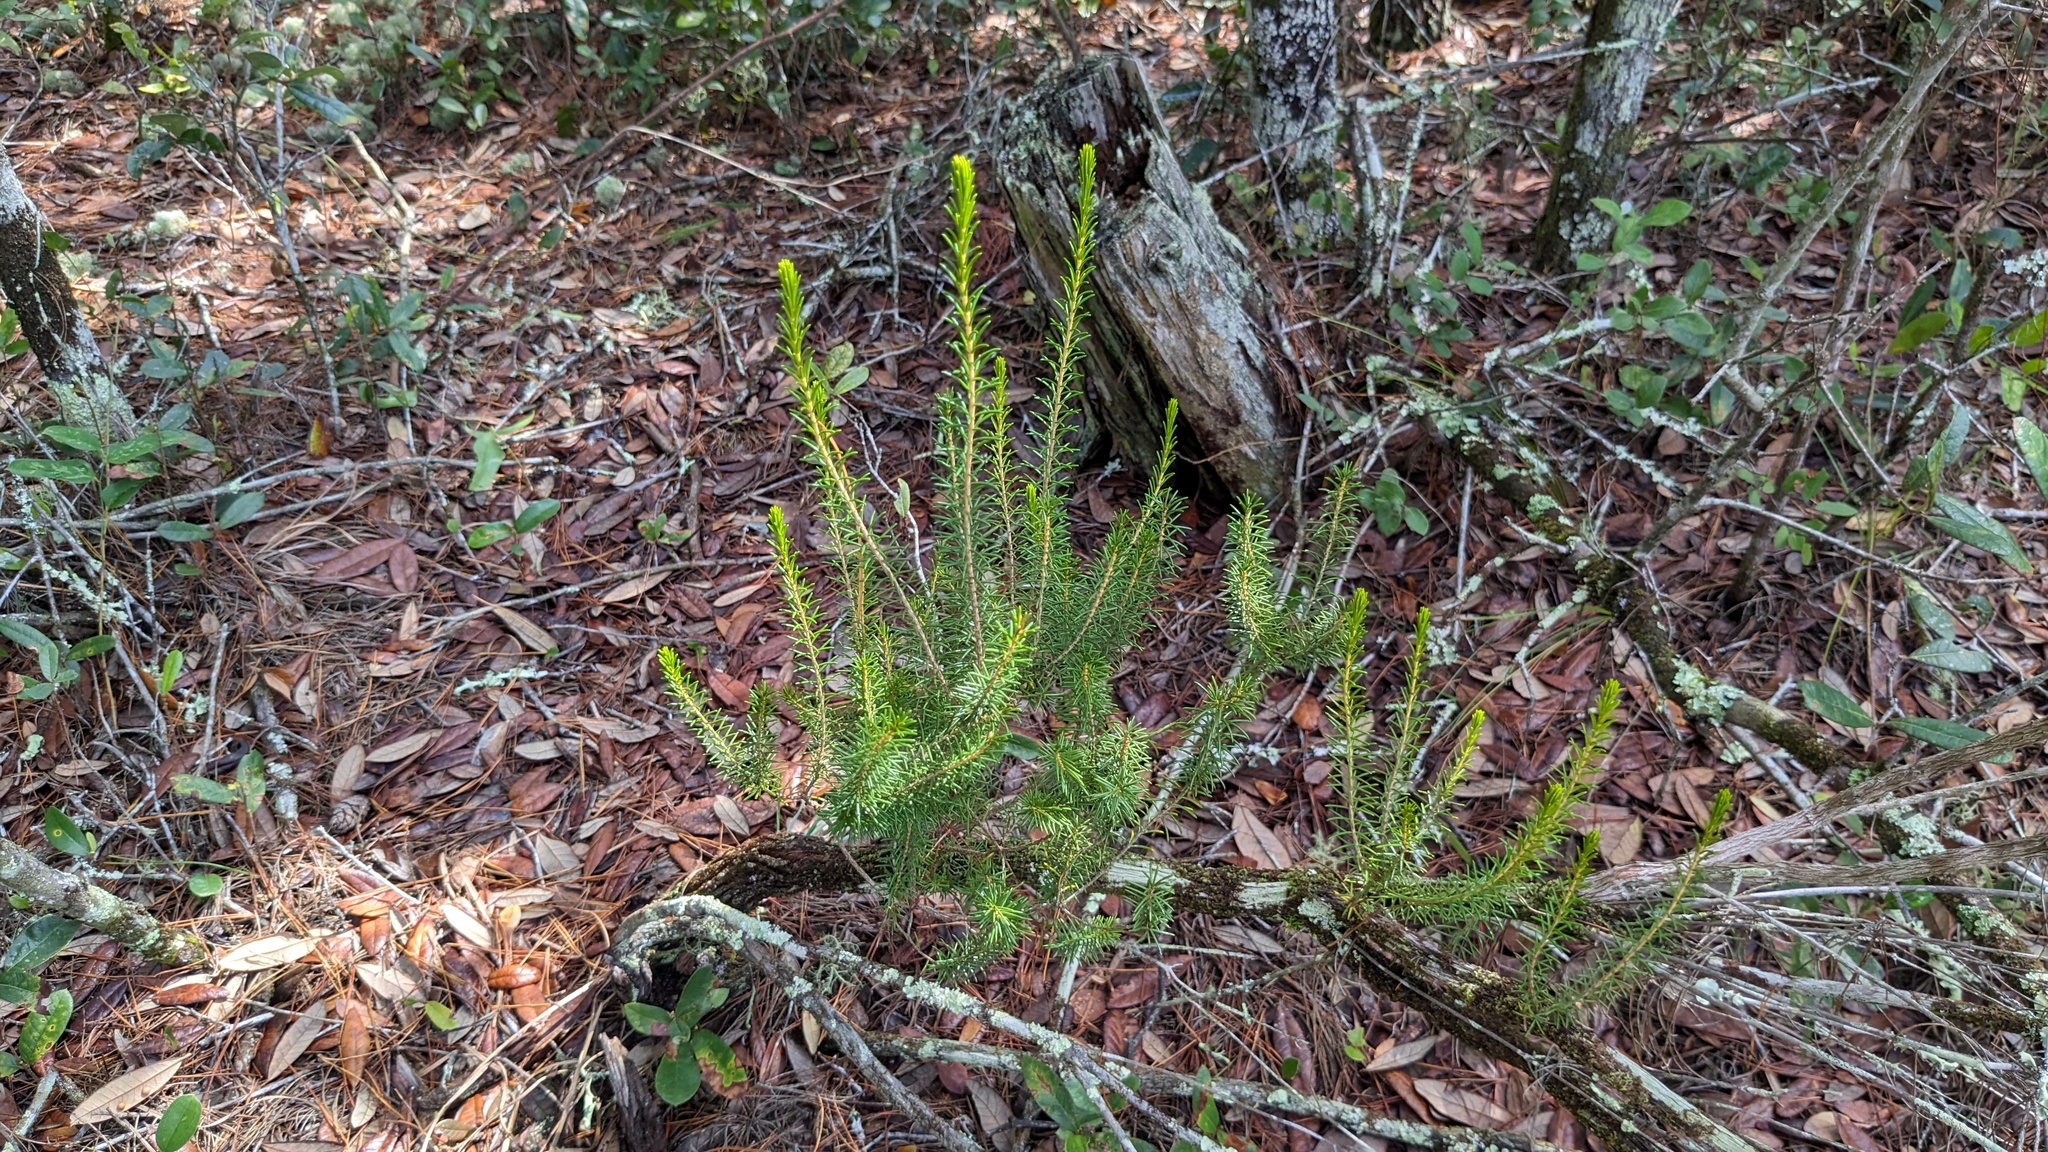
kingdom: Plantae
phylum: Tracheophyta
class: Magnoliopsida
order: Ericales
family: Ericaceae
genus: Ceratiola
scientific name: Ceratiola ericoides
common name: Sandhill-rosemary
